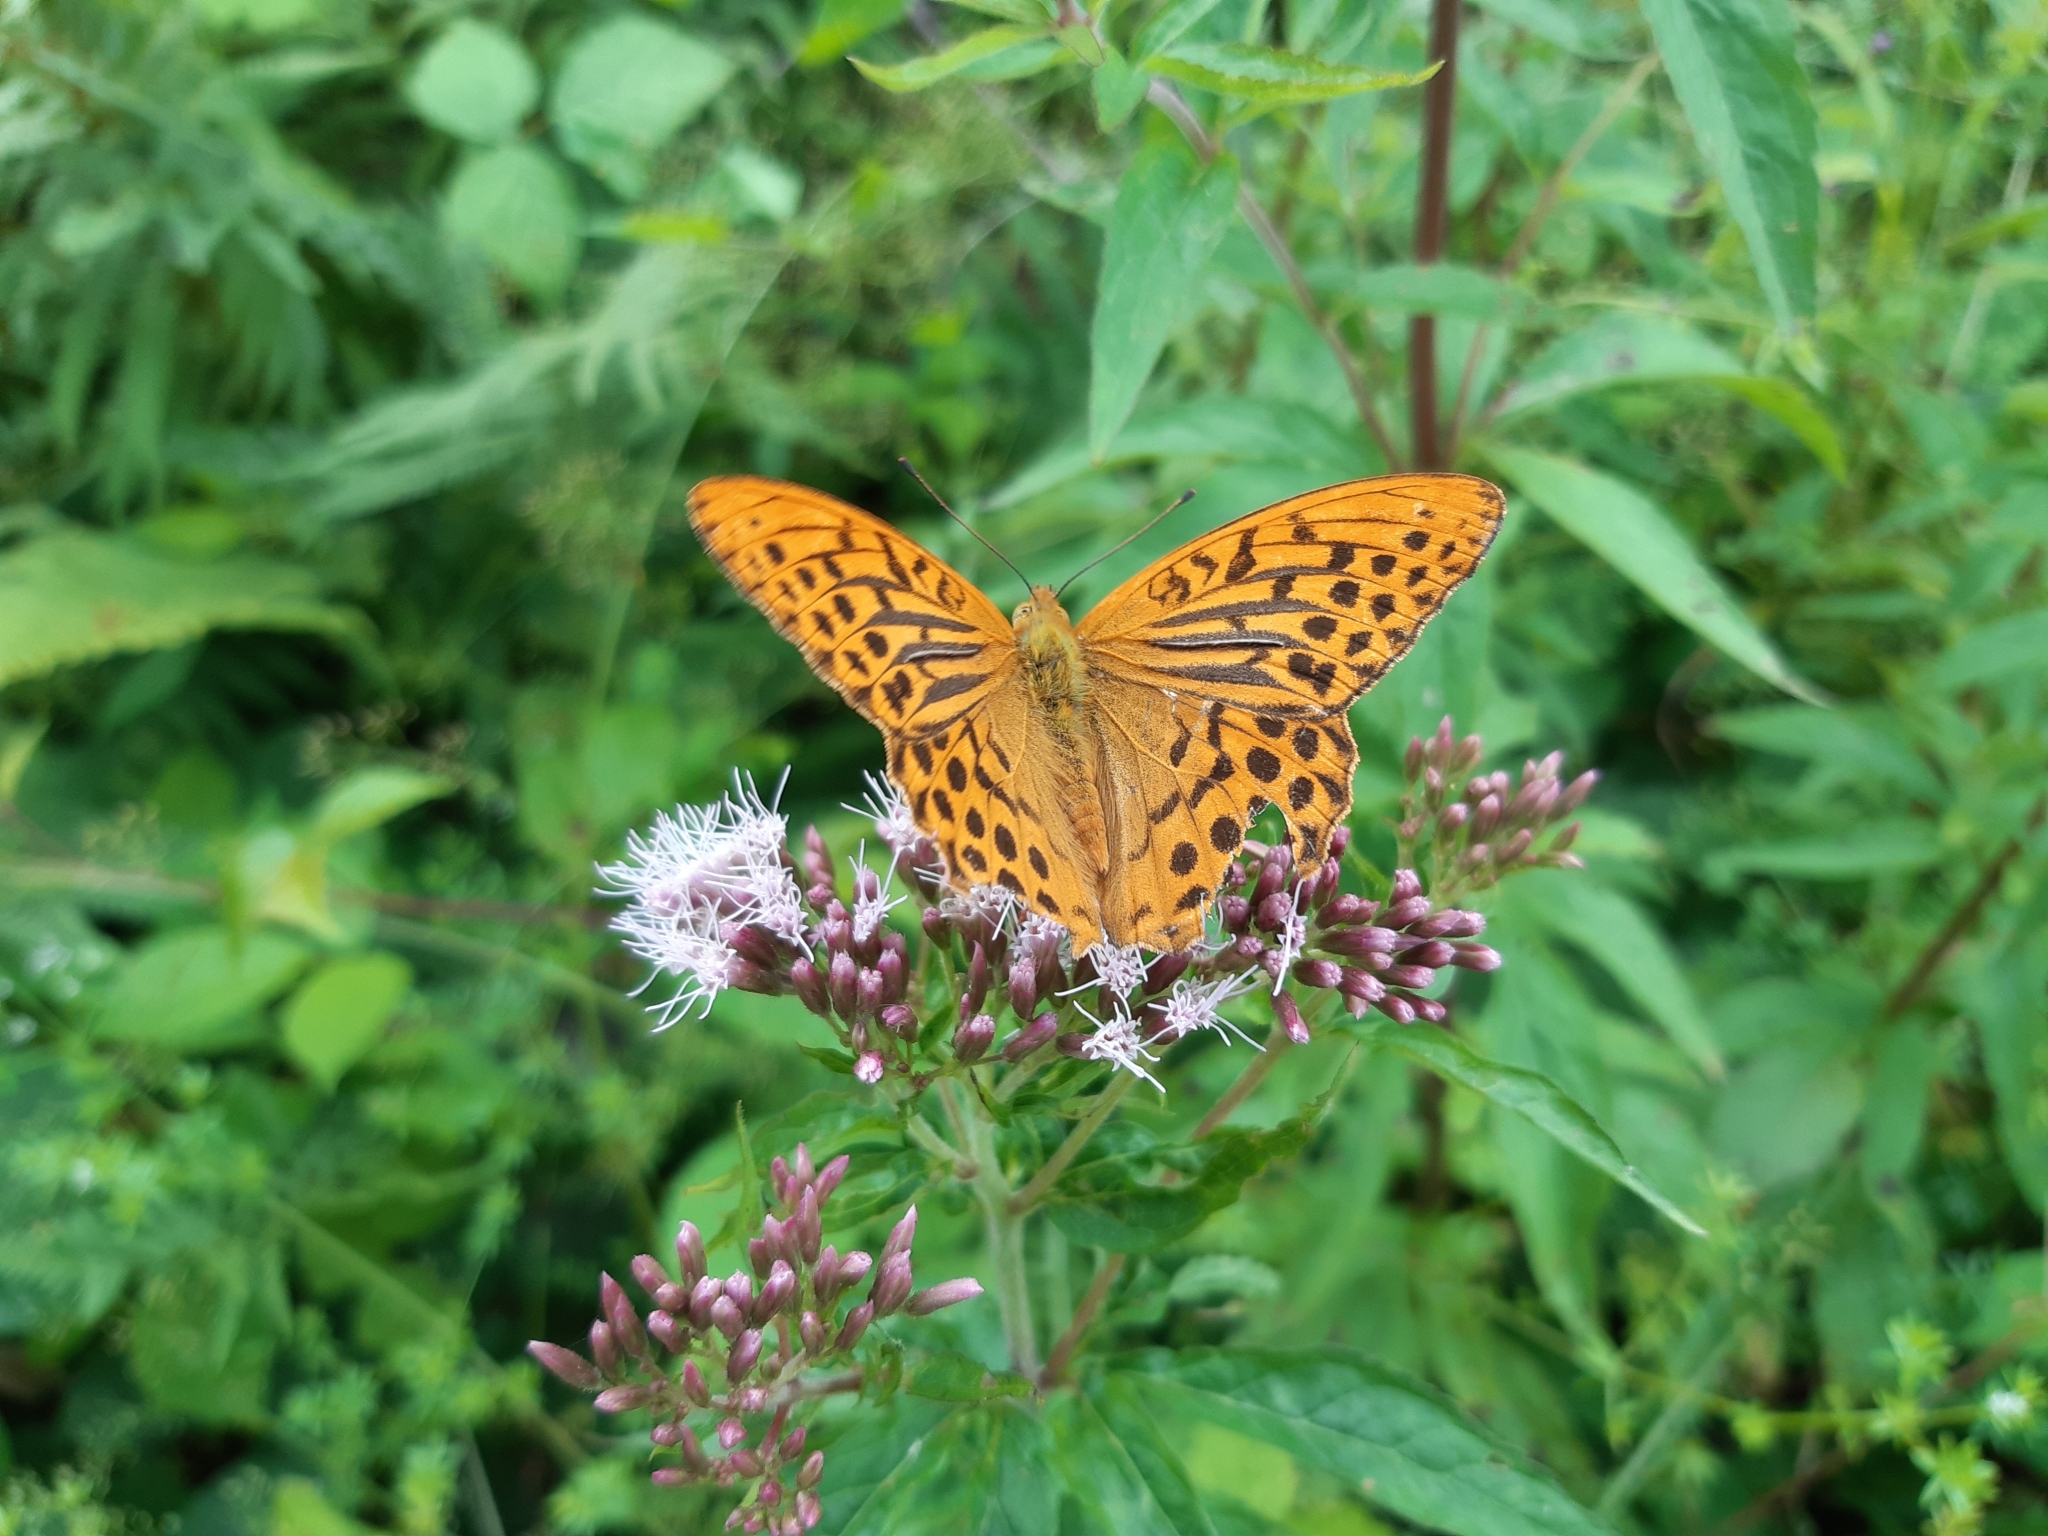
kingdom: Animalia
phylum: Arthropoda
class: Insecta
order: Lepidoptera
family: Nymphalidae
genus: Argynnis
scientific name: Argynnis paphia
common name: Silver-washed fritillary
